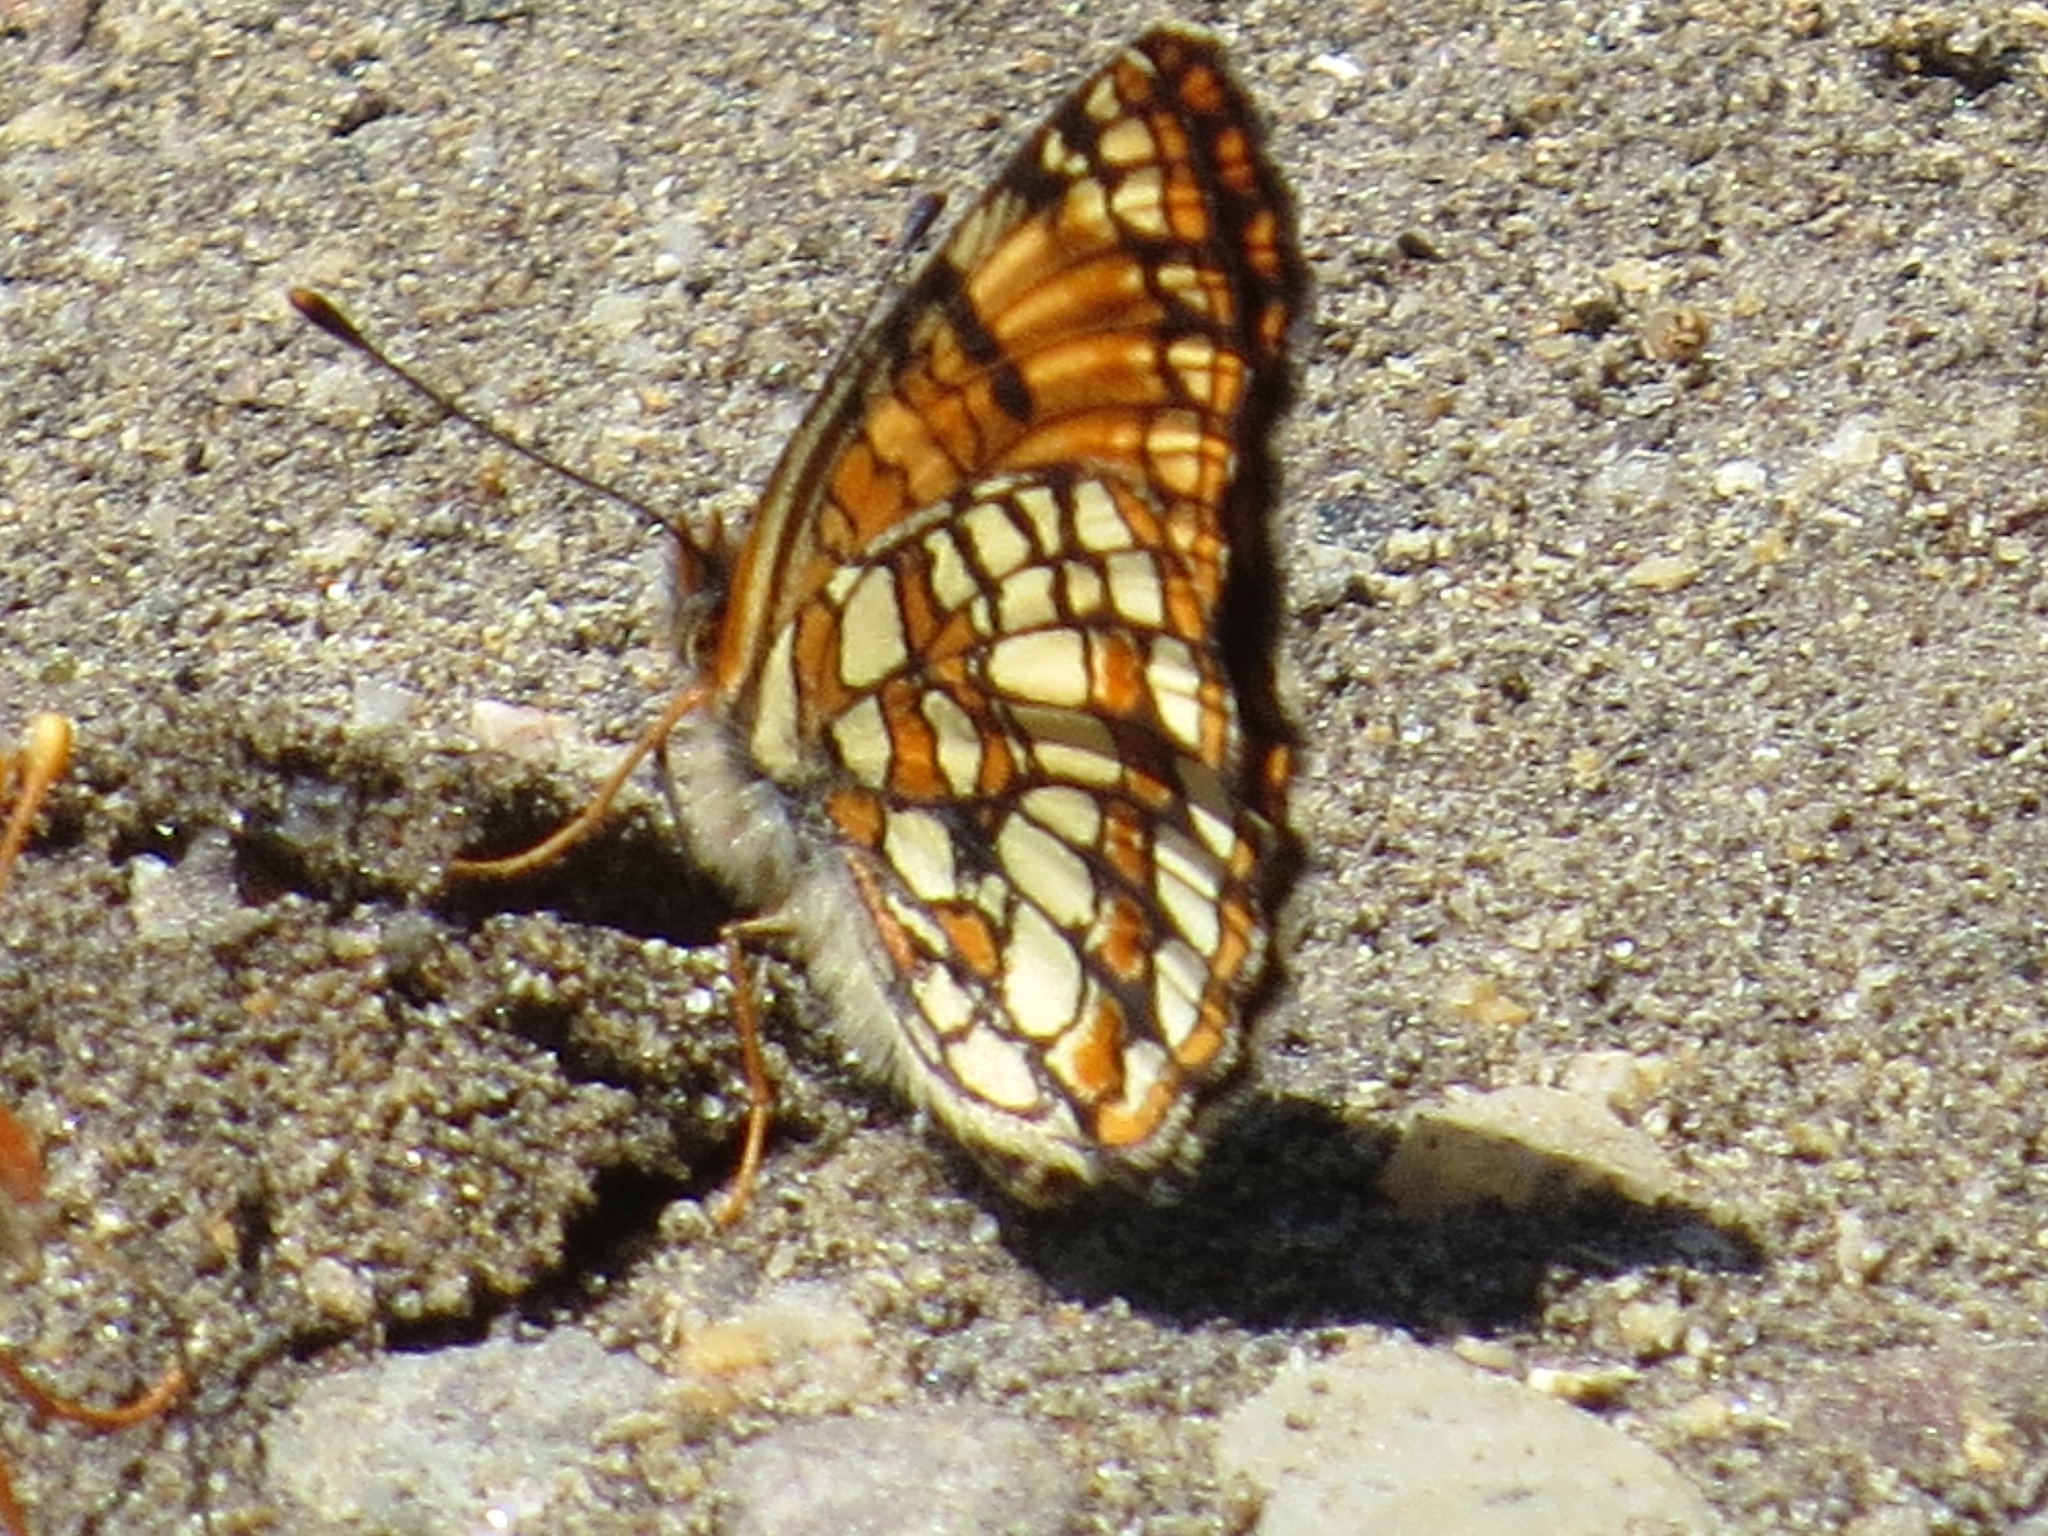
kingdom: Animalia
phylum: Arthropoda
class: Insecta
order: Lepidoptera
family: Nymphalidae
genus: Chlosyne
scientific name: Chlosyne hoffmanni
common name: Hoffmann's checkerspot
